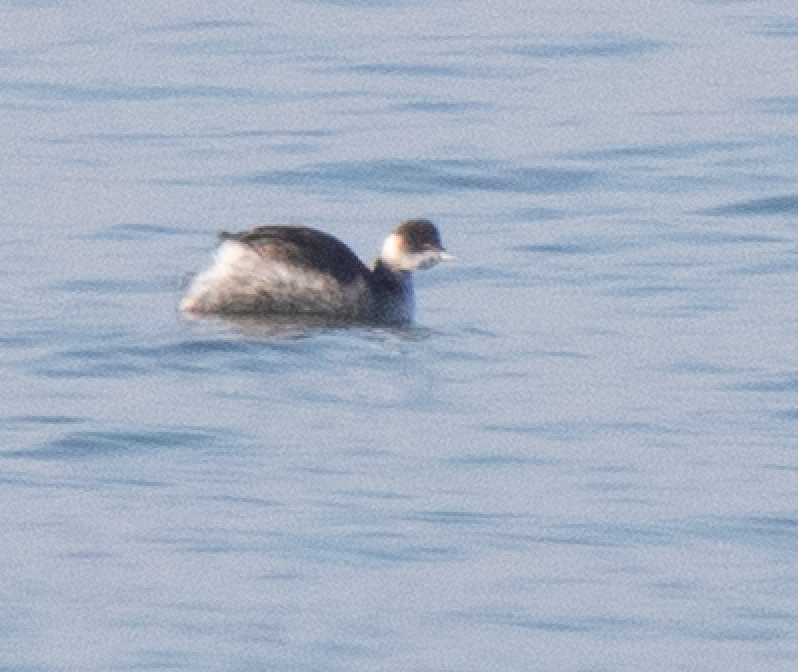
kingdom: Animalia
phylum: Chordata
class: Aves
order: Podicipediformes
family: Podicipedidae
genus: Podiceps
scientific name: Podiceps nigricollis
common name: Black-necked grebe
